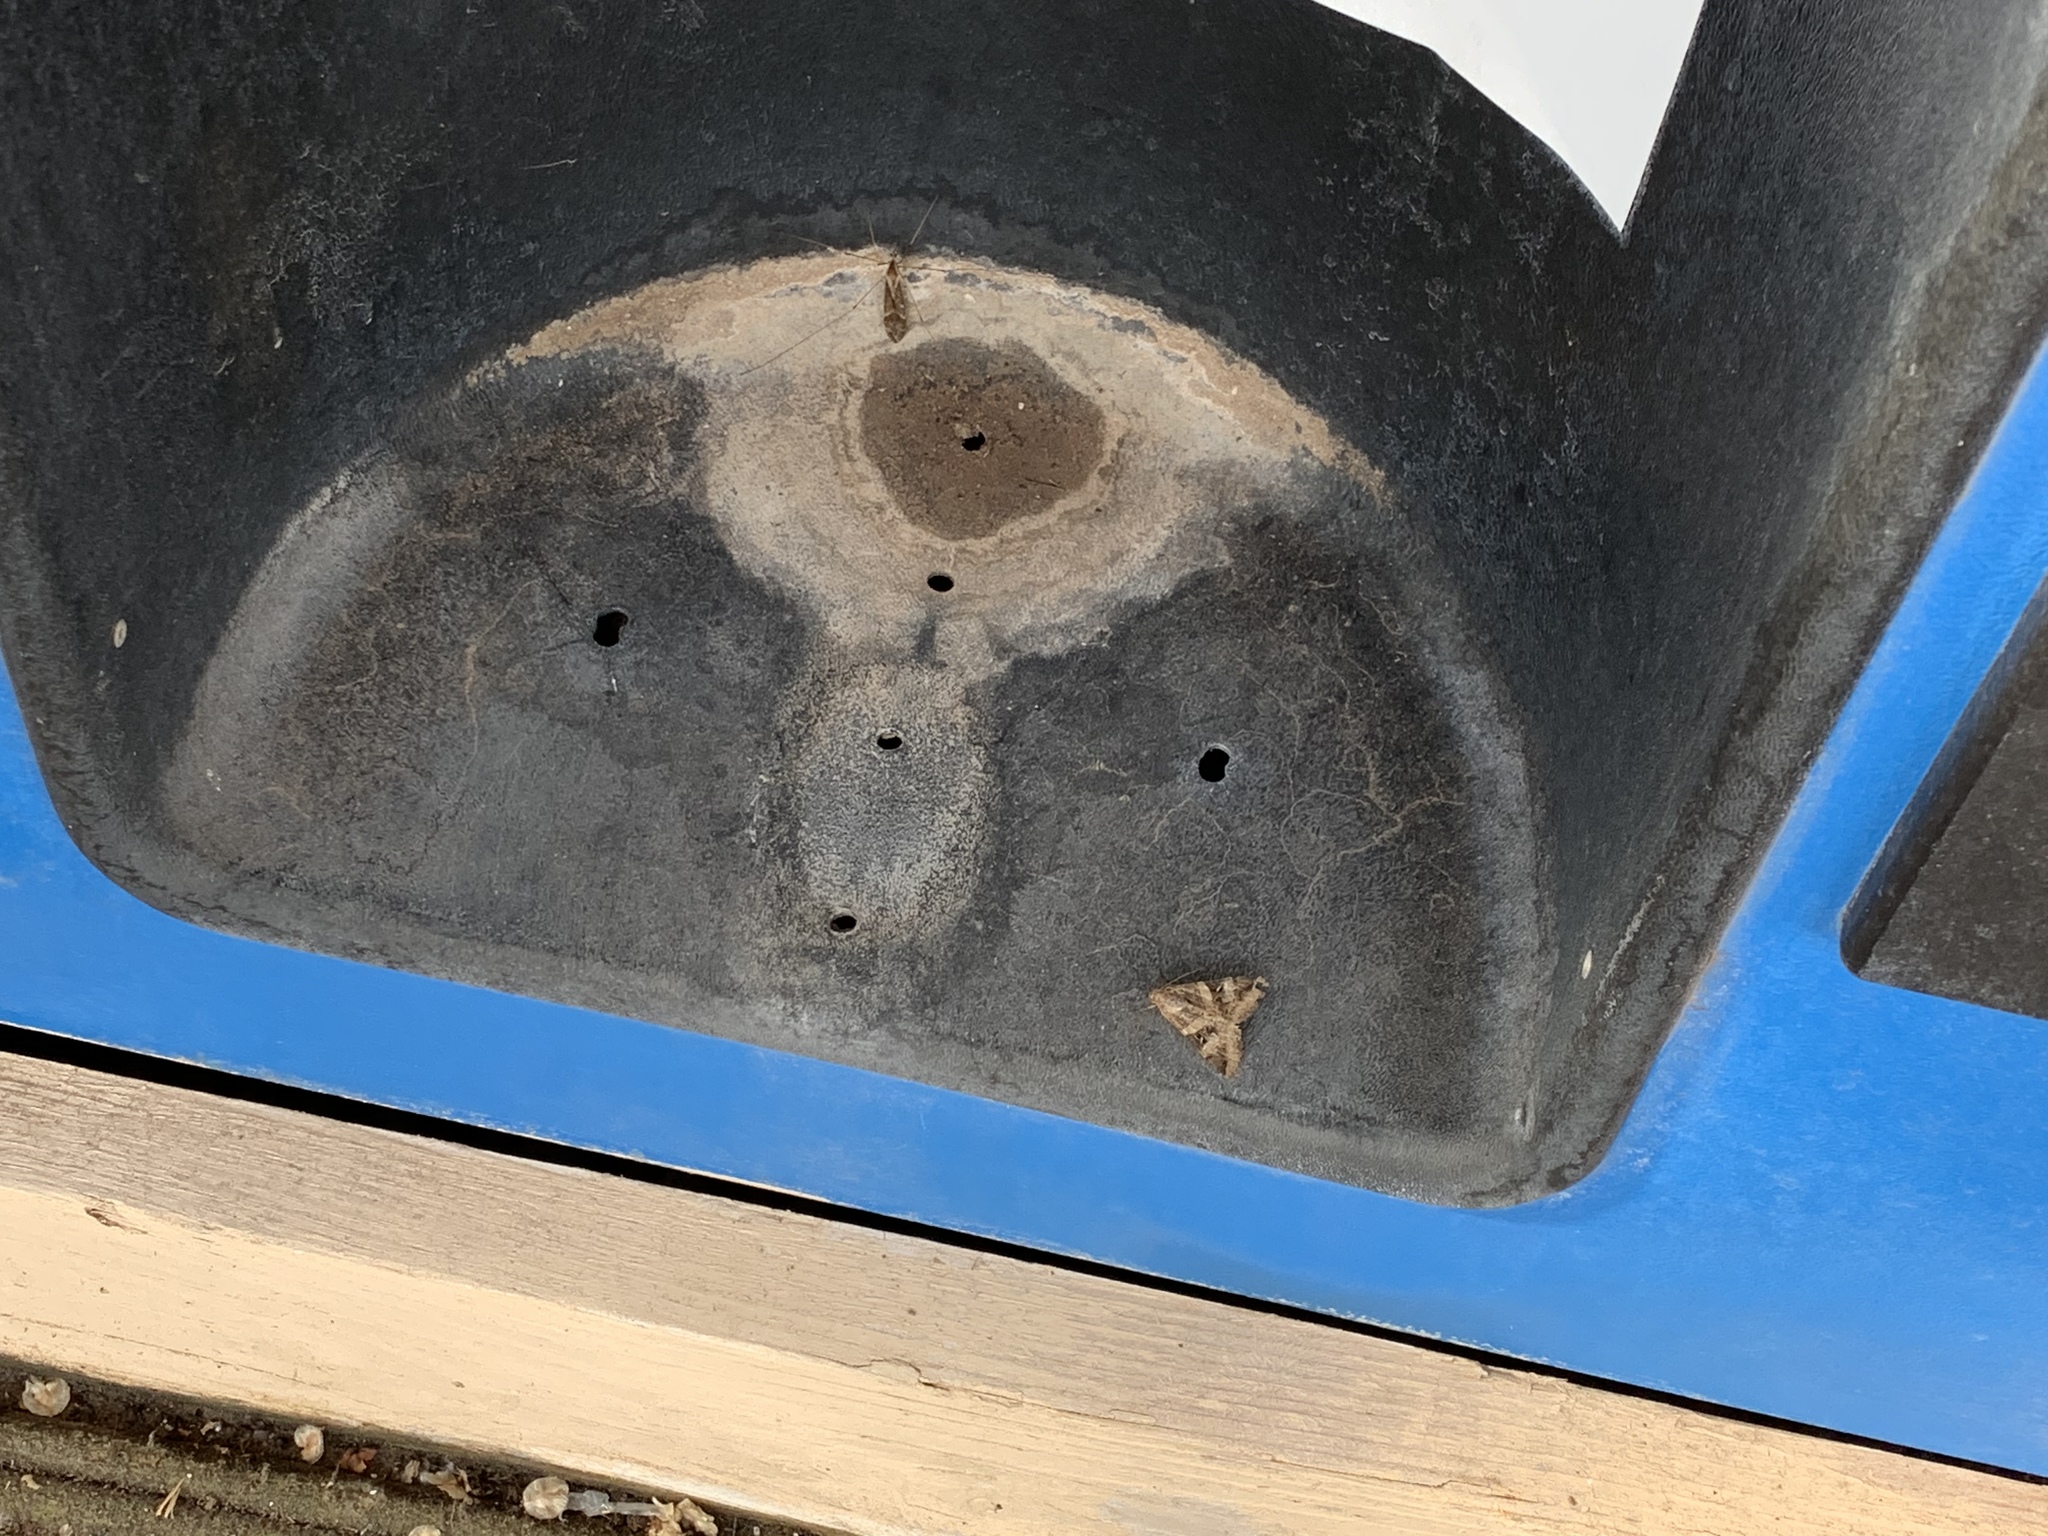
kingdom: Animalia
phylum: Arthropoda
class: Insecta
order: Lepidoptera
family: Erebidae
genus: Melipotis
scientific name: Melipotis indomita
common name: Moth
